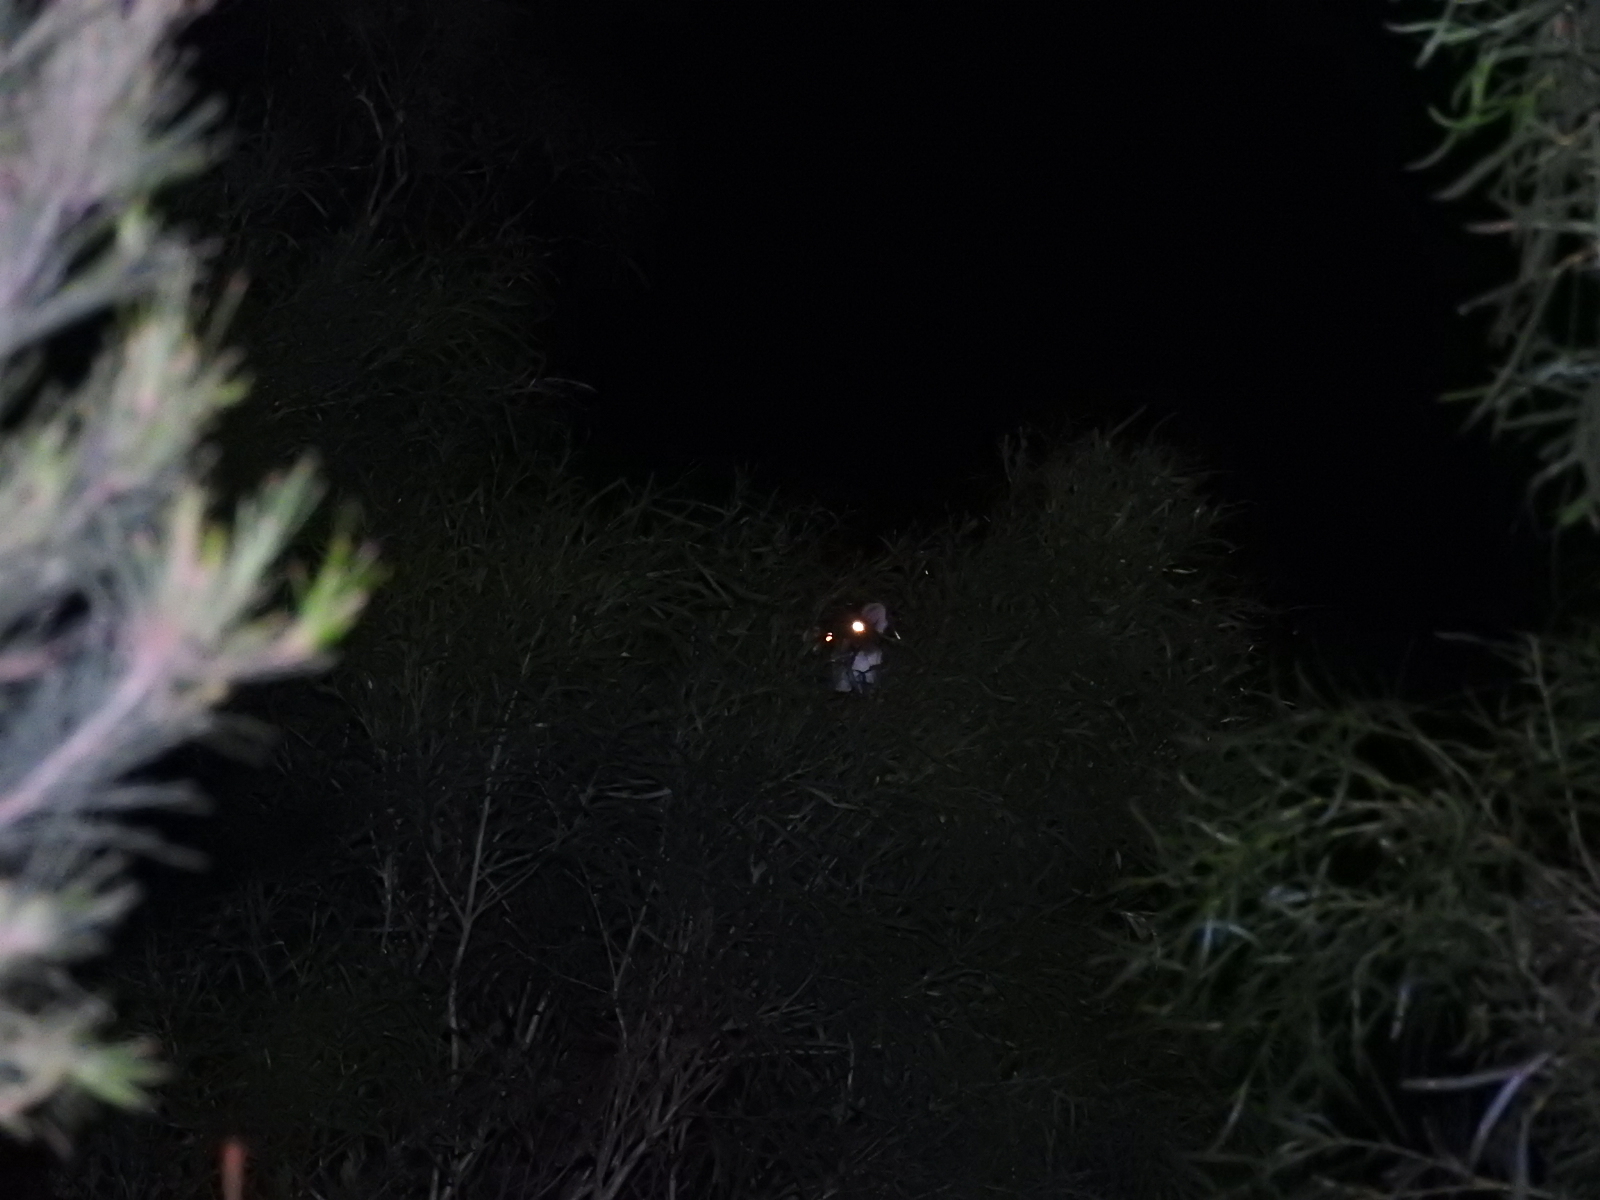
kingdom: Animalia
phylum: Chordata
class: Mammalia
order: Diprotodontia
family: Pseudocheiridae
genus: Pseudocheirus
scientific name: Pseudocheirus peregrinus
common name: Common ringtail possum
